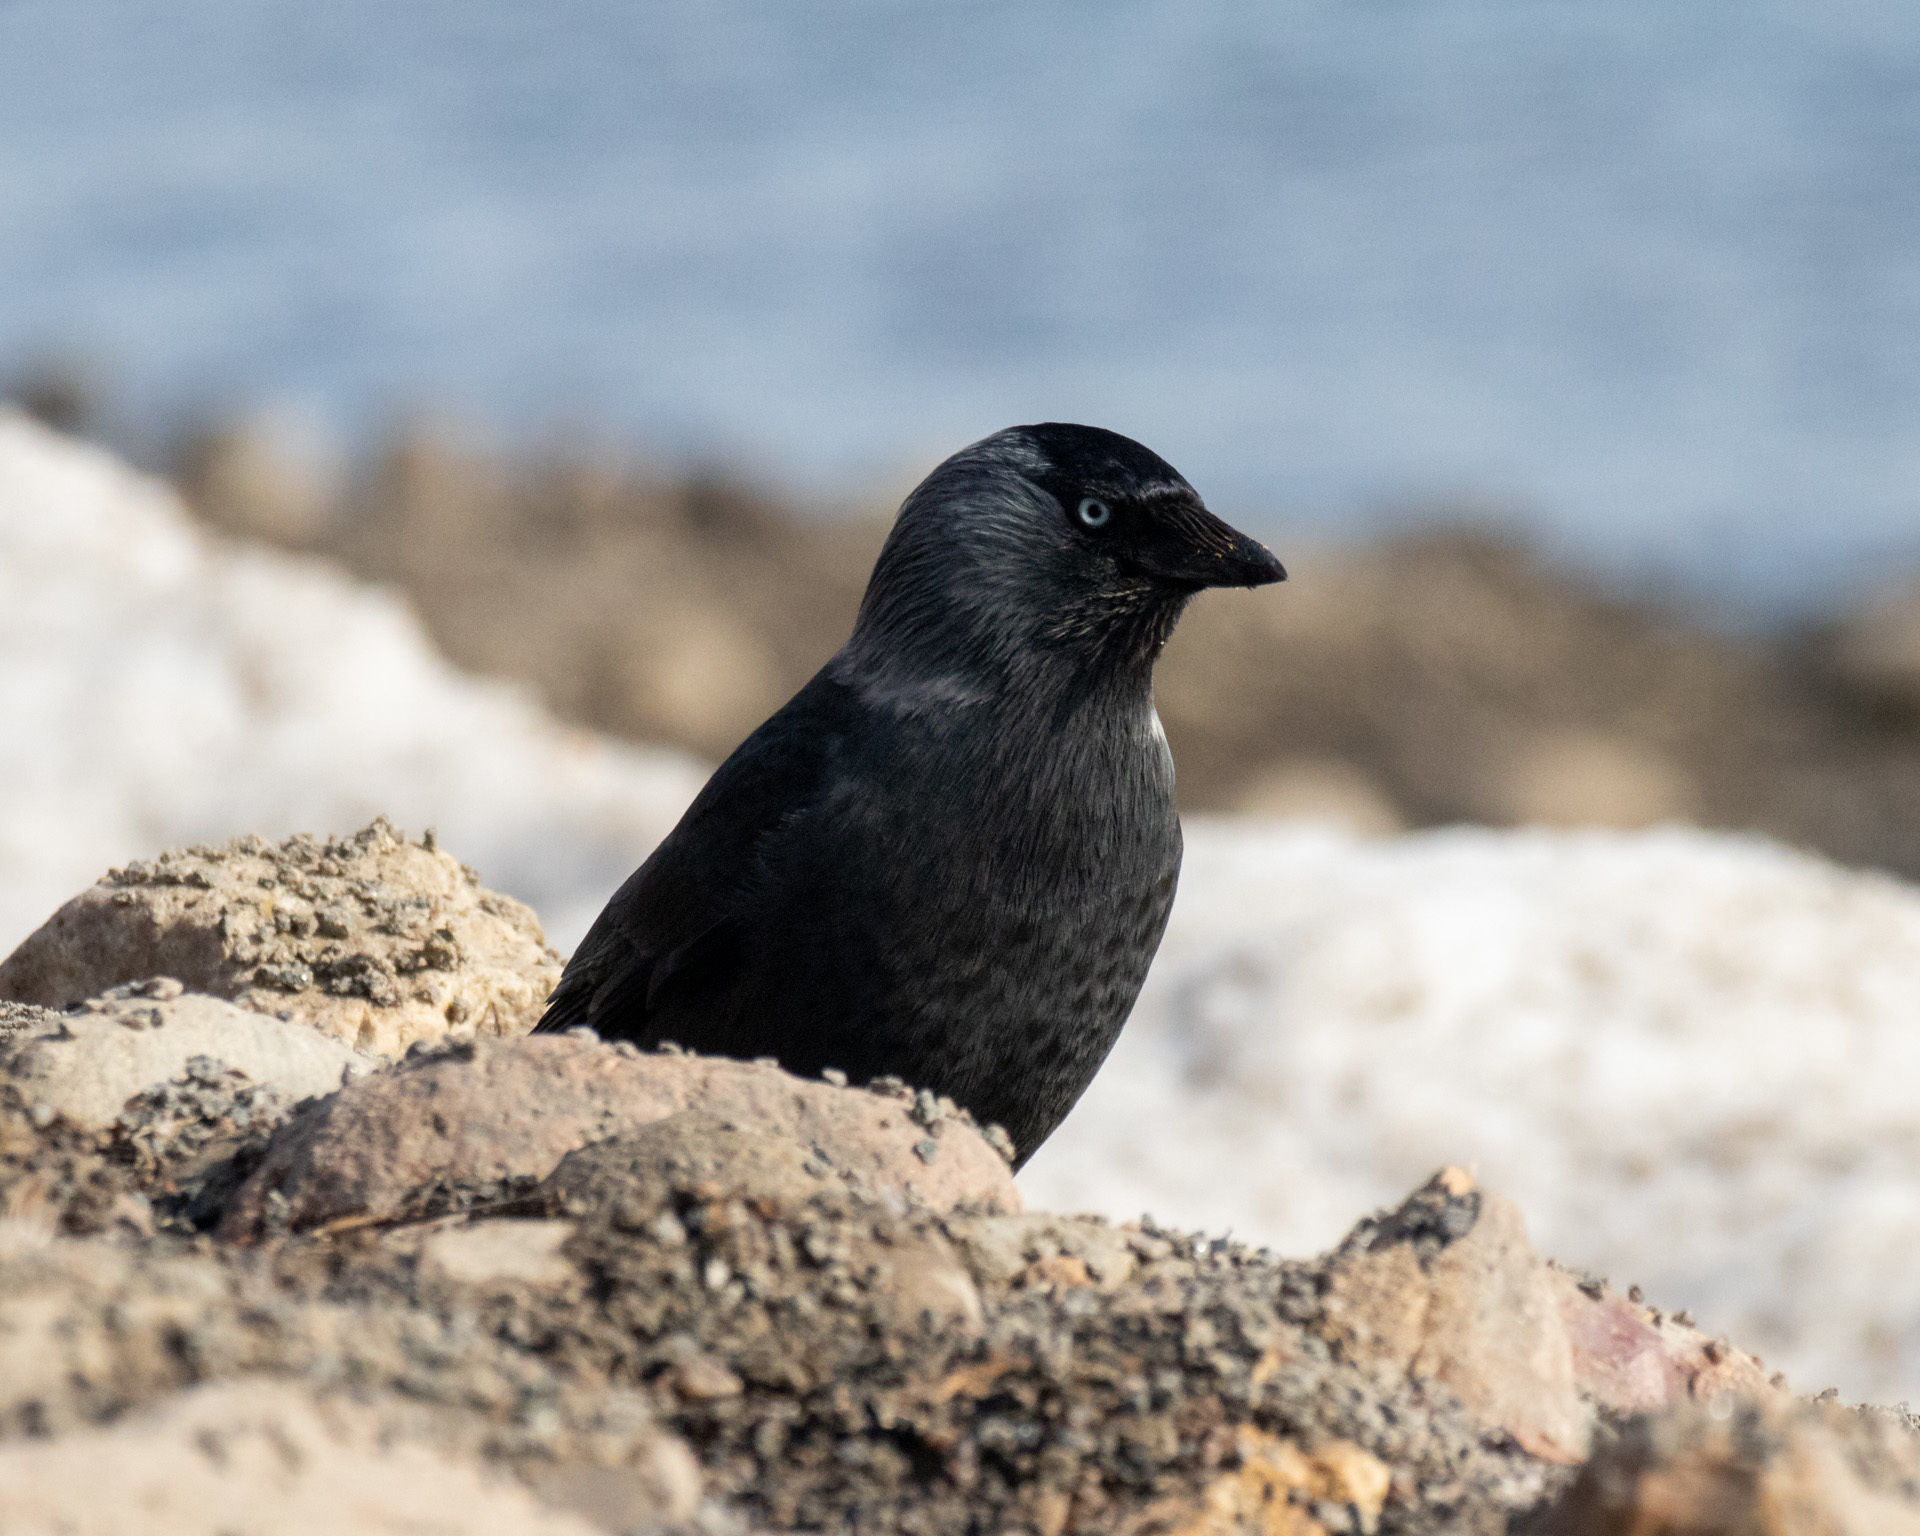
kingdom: Animalia
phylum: Chordata
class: Aves
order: Passeriformes
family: Corvidae
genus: Coloeus
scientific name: Coloeus monedula
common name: Western jackdaw
